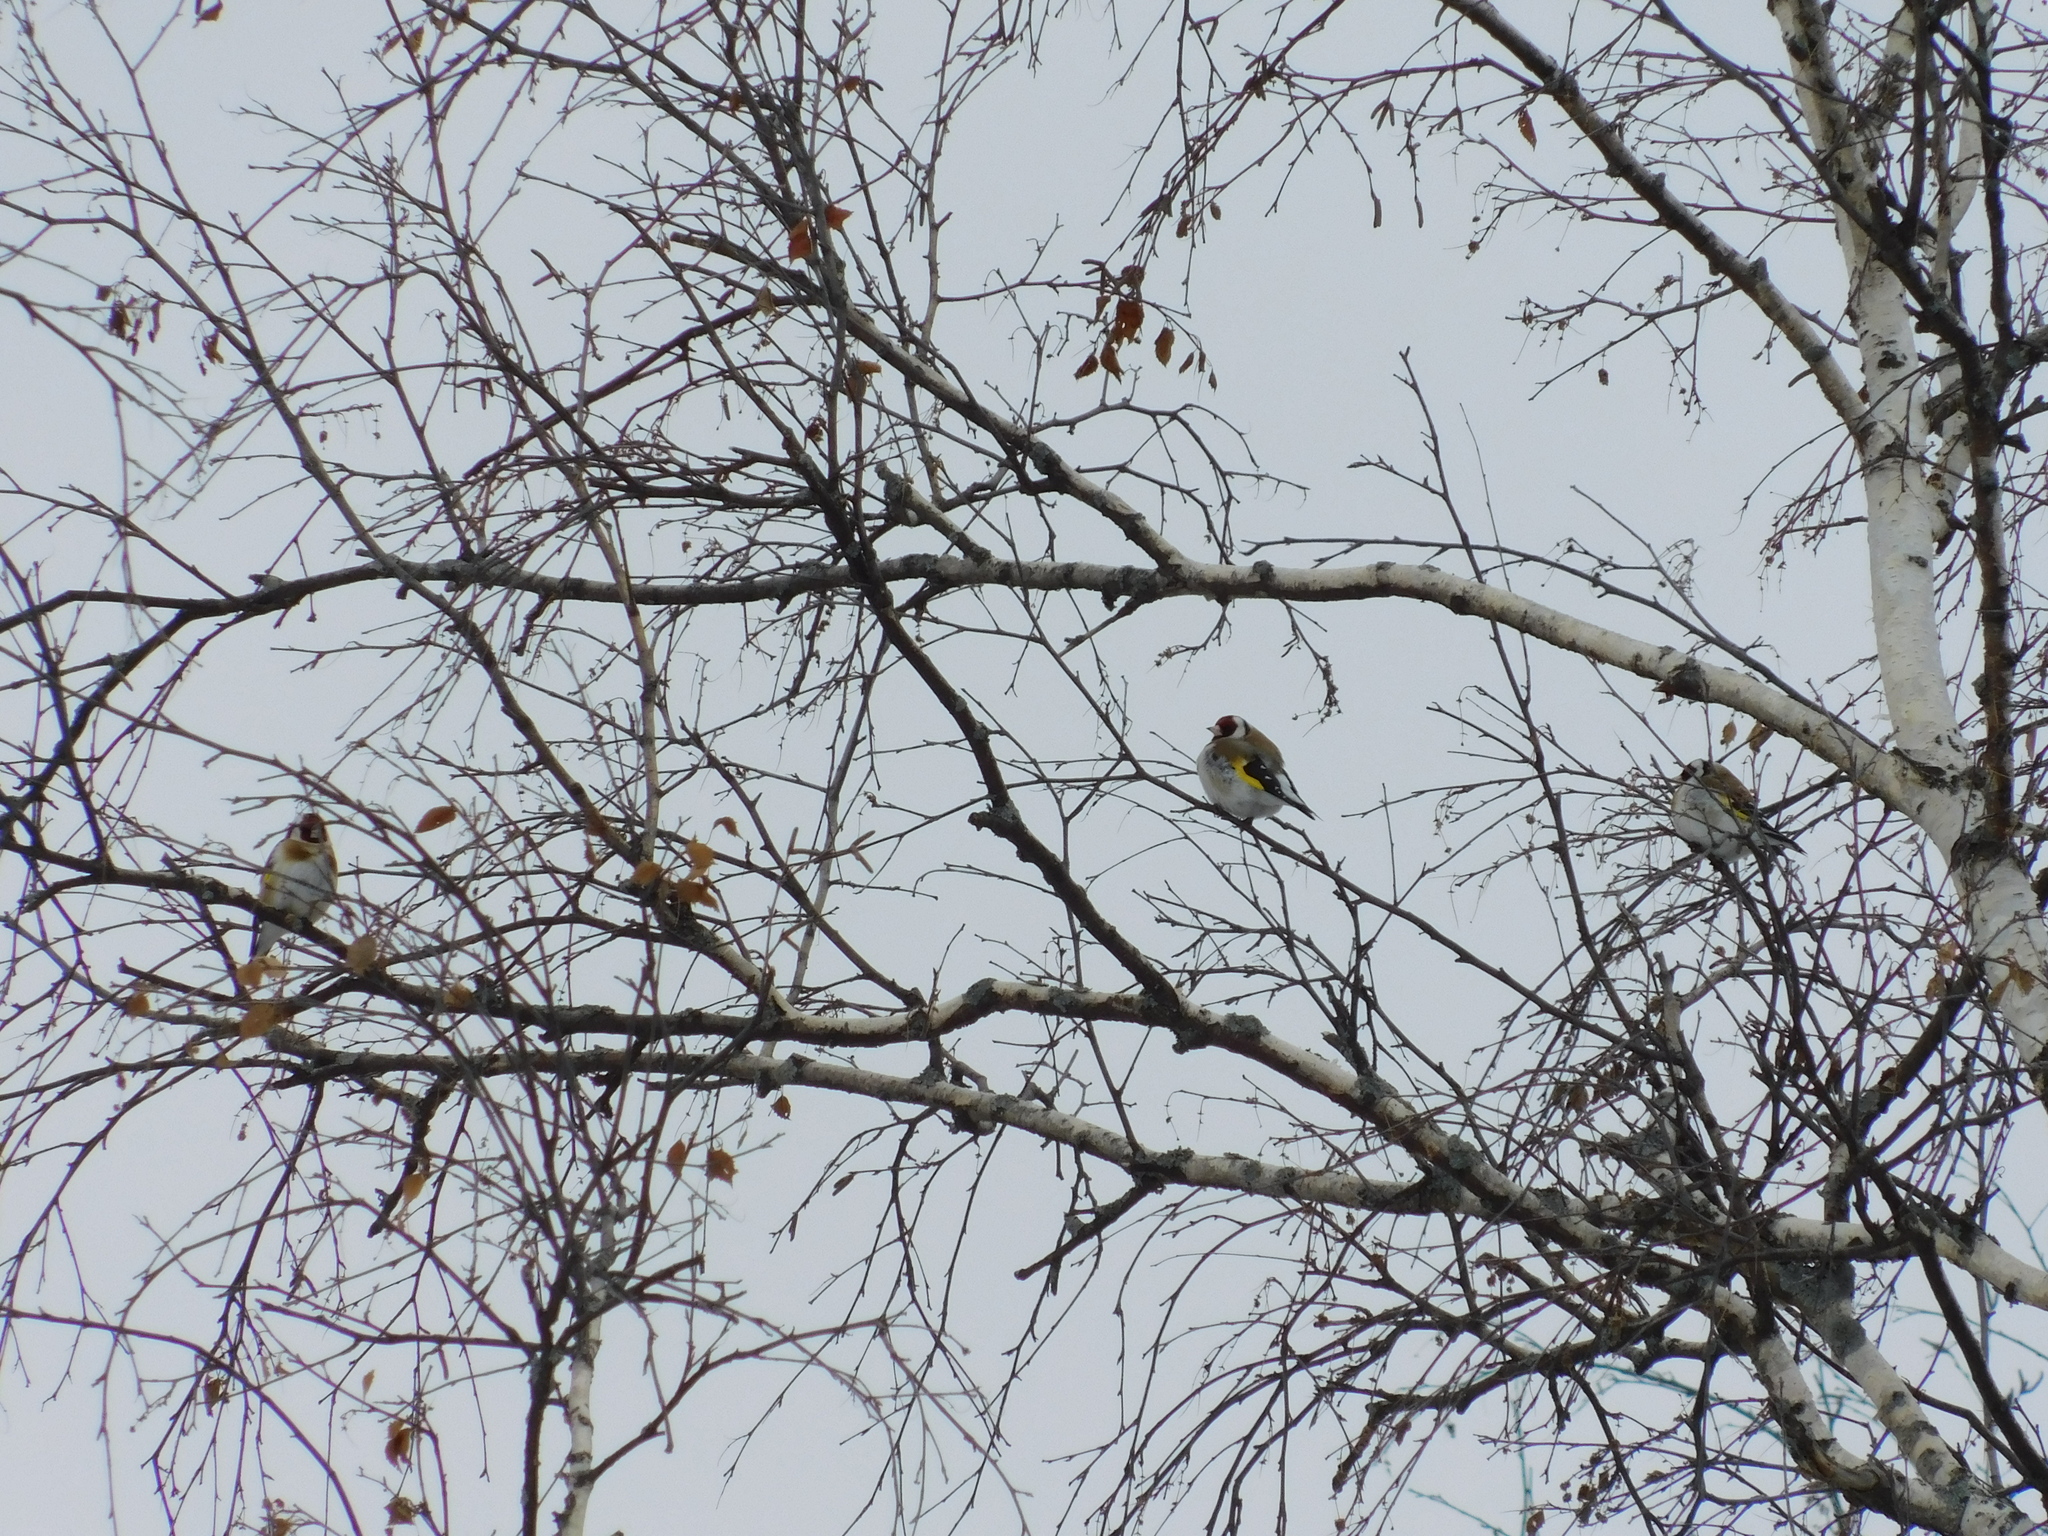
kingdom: Animalia
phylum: Chordata
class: Aves
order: Passeriformes
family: Fringillidae
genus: Carduelis
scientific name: Carduelis carduelis
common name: European goldfinch
